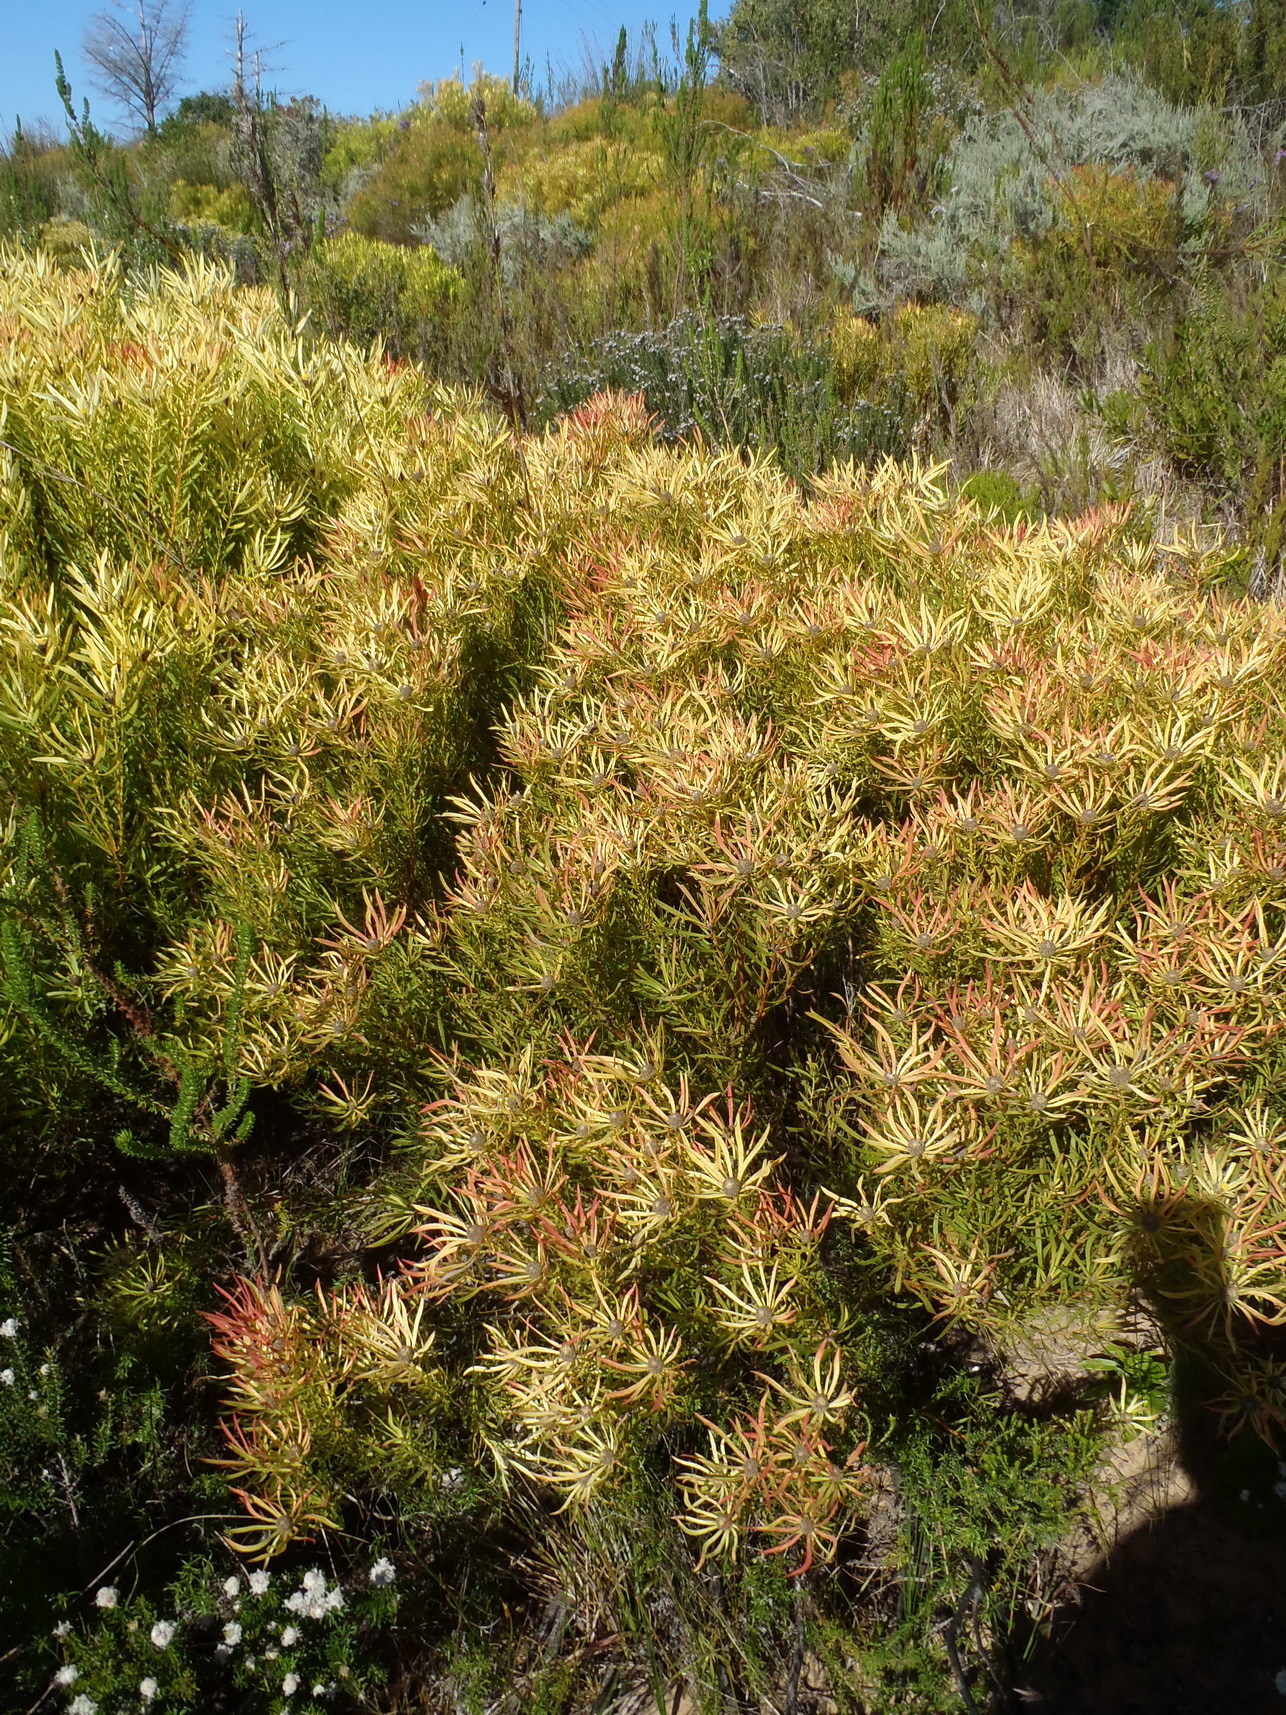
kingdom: Plantae
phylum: Tracheophyta
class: Magnoliopsida
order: Proteales
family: Proteaceae
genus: Leucadendron
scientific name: Leucadendron salignum
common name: Common sunshine conebush
